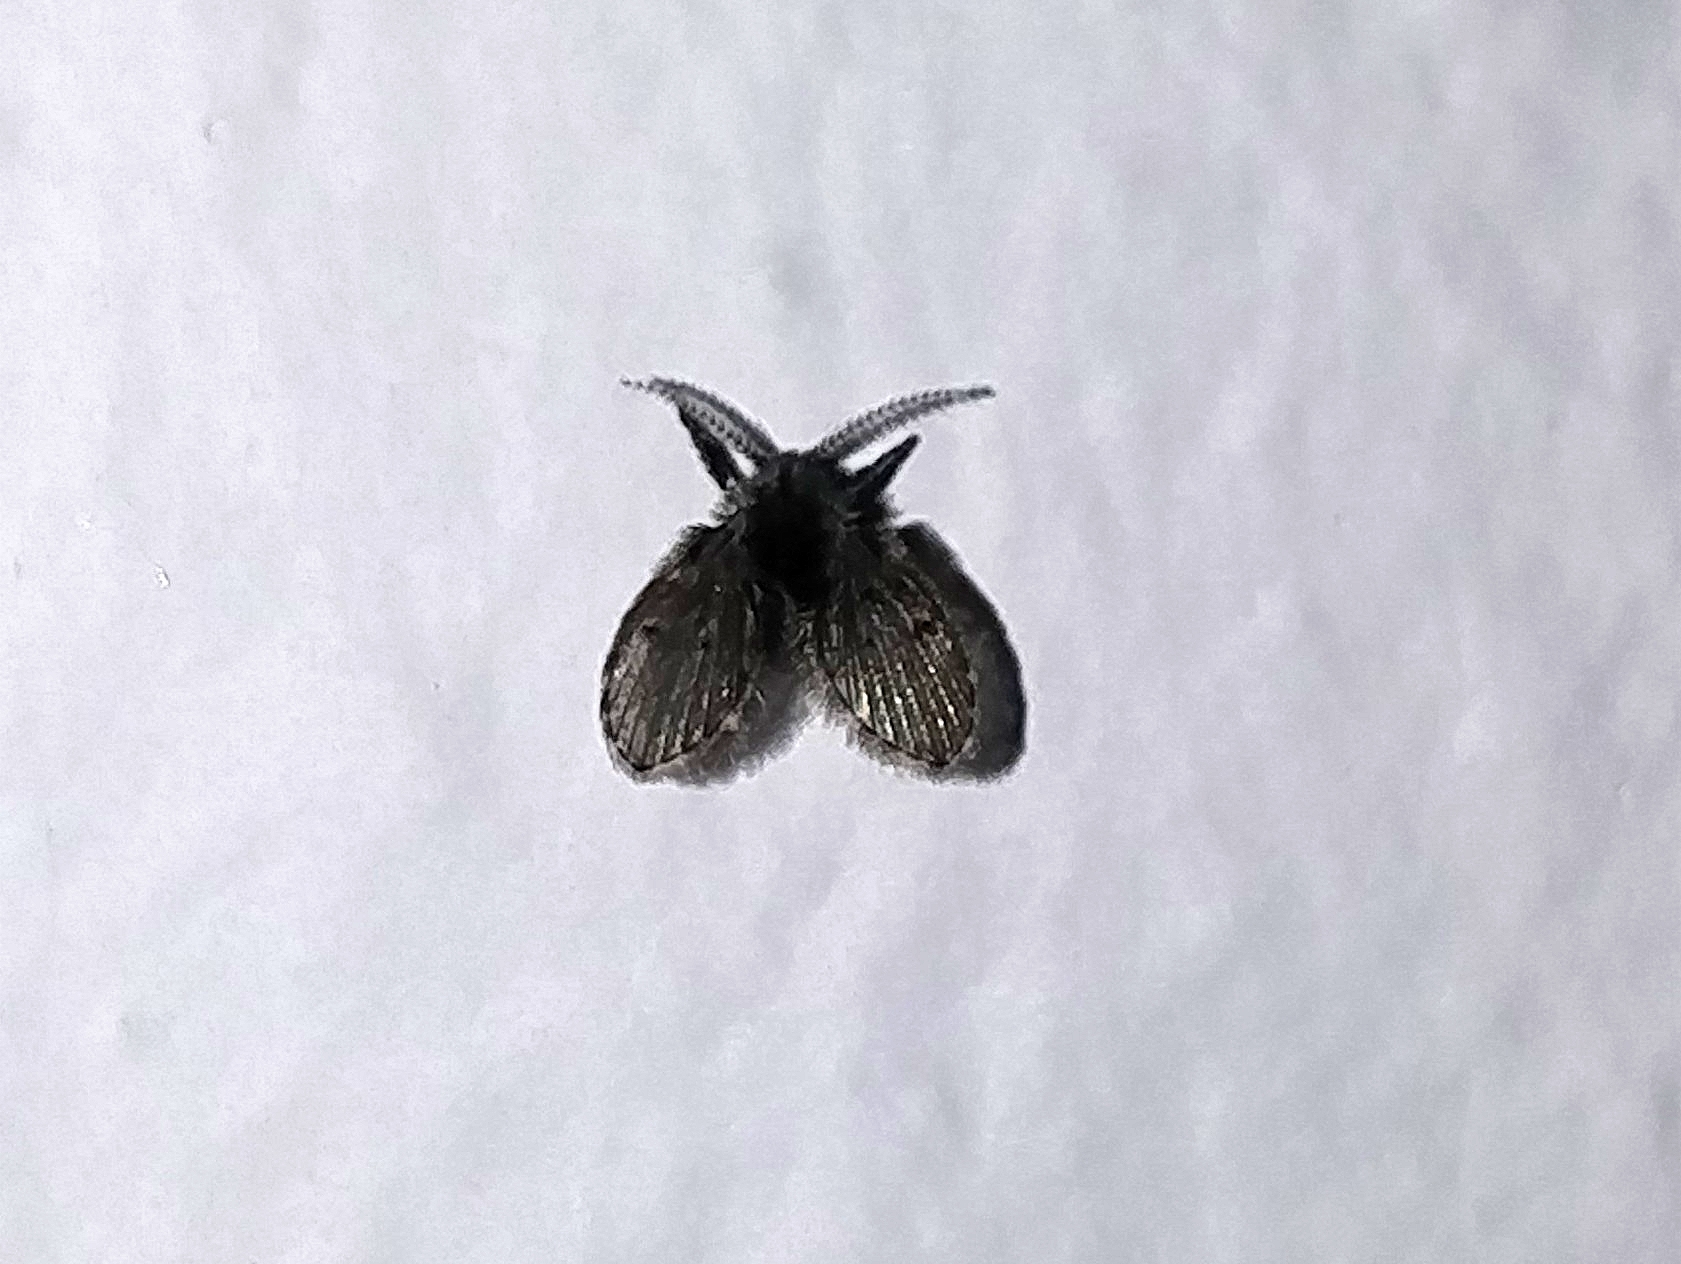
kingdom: Animalia
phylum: Arthropoda
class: Insecta
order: Diptera
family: Psychodidae
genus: Clogmia
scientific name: Clogmia albipunctatus
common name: White-spotted moth fly
